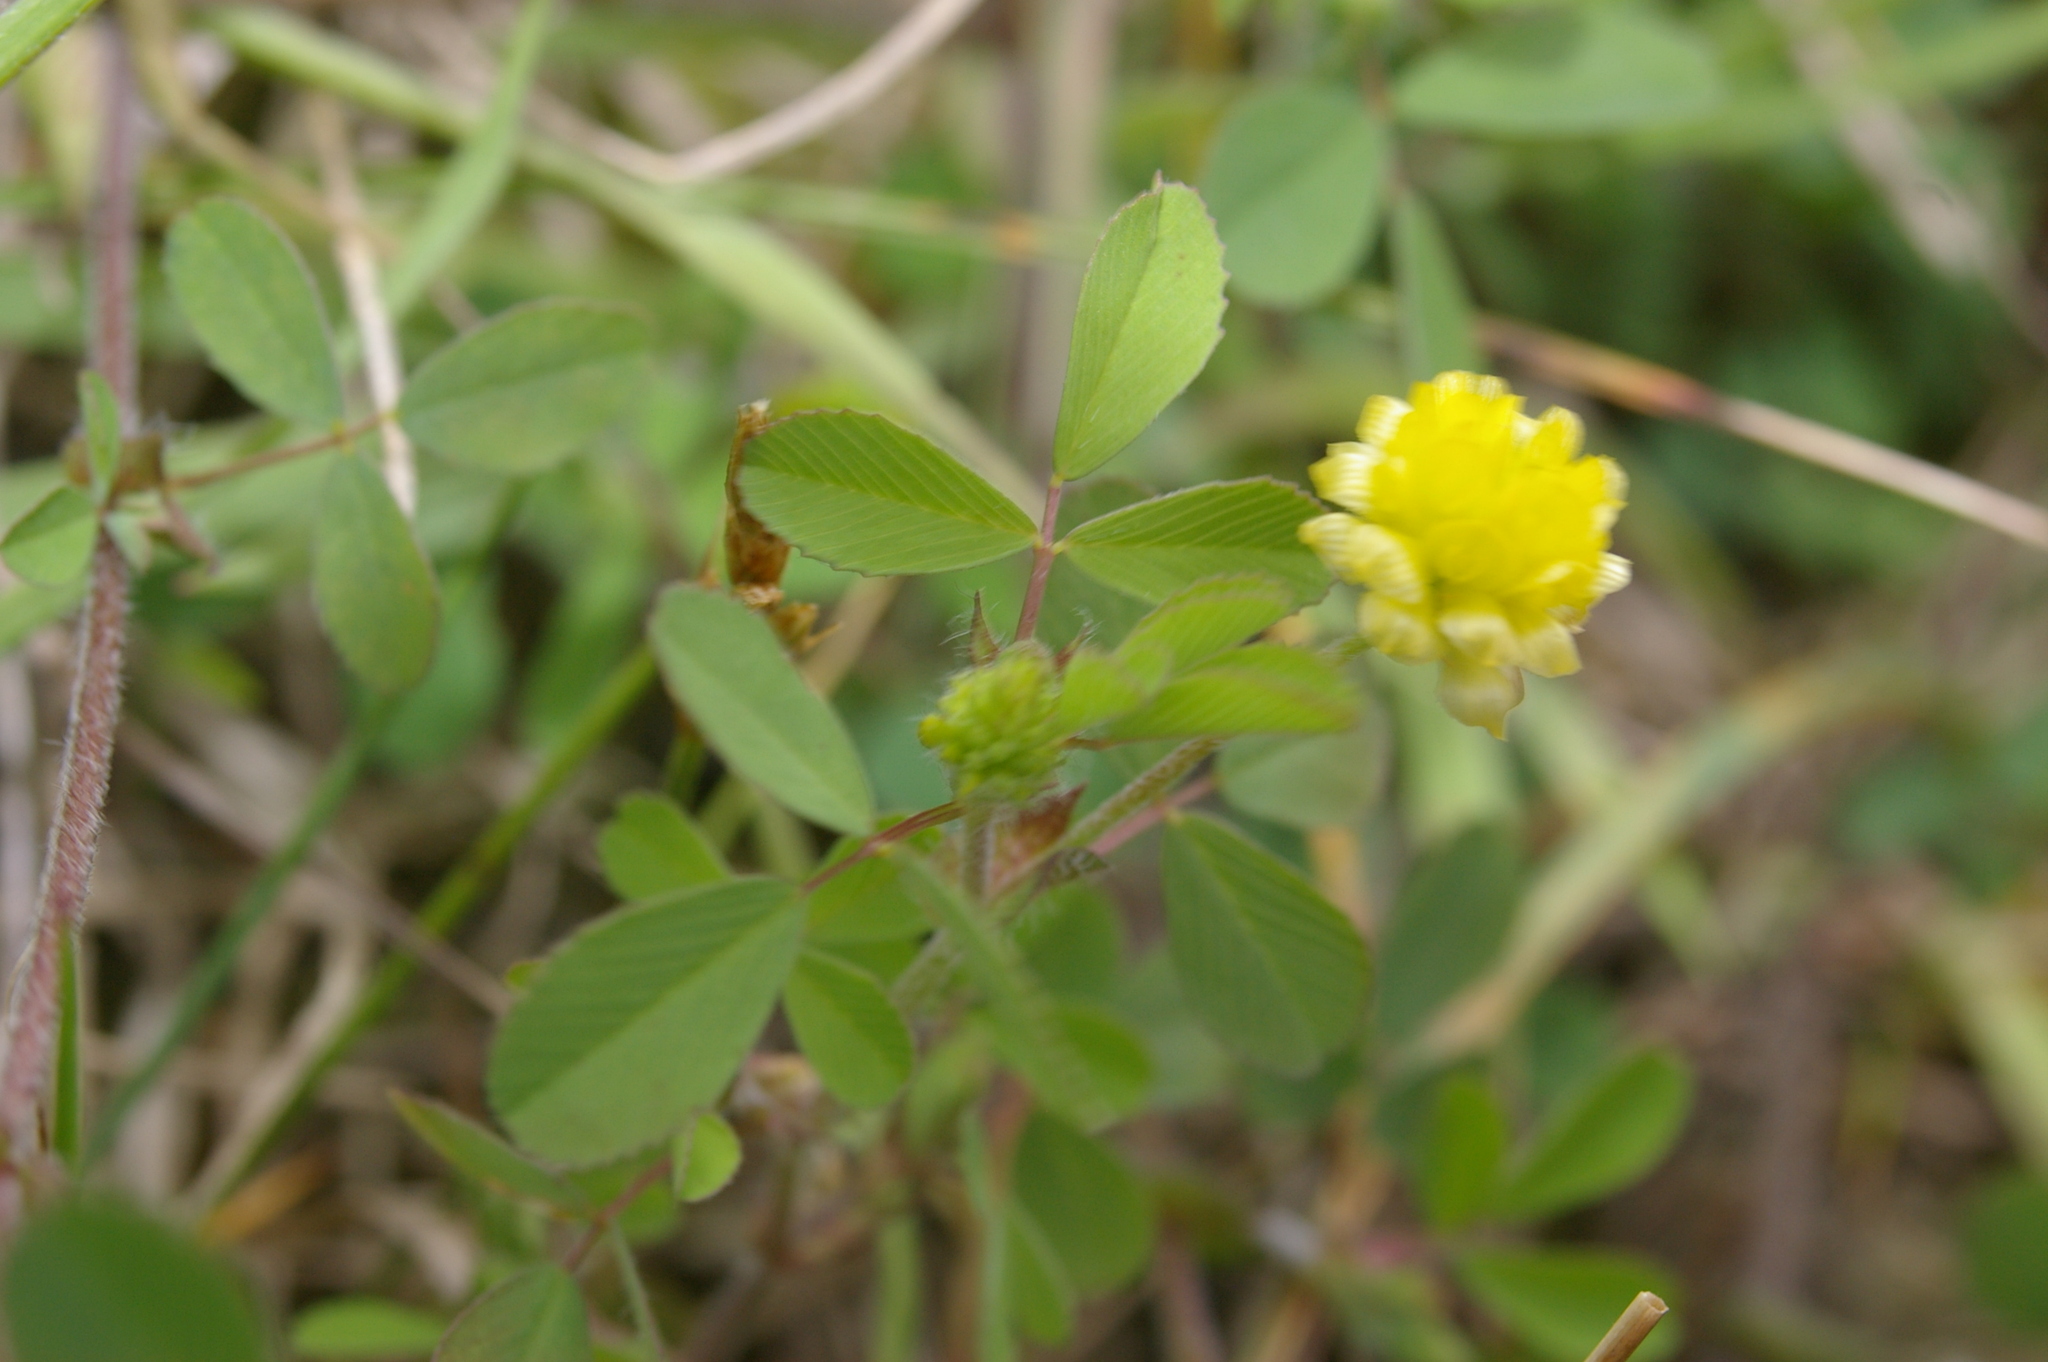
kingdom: Plantae
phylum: Tracheophyta
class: Magnoliopsida
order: Fabales
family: Fabaceae
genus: Trifolium
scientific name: Trifolium campestre
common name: Field clover
